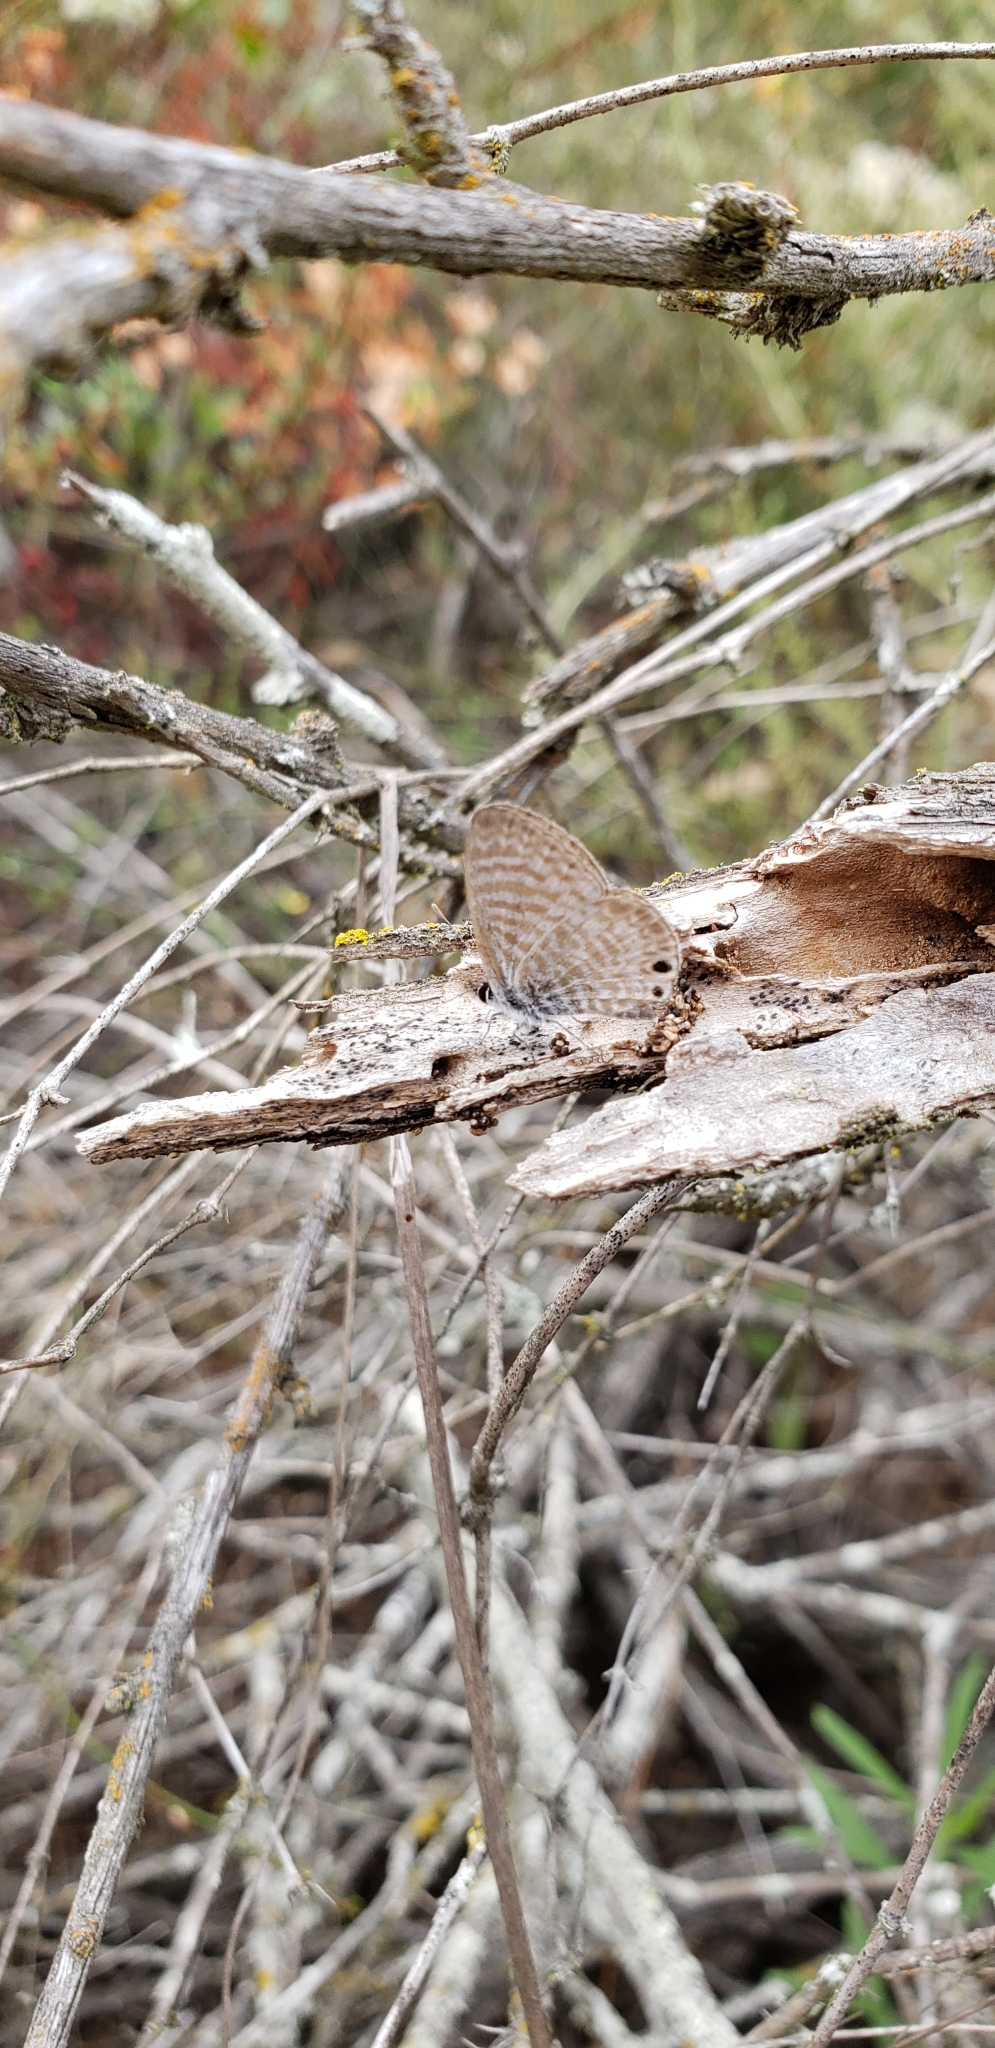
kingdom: Animalia
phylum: Arthropoda
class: Insecta
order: Lepidoptera
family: Lycaenidae
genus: Leptotes
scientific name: Leptotes marina
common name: Marine blue
